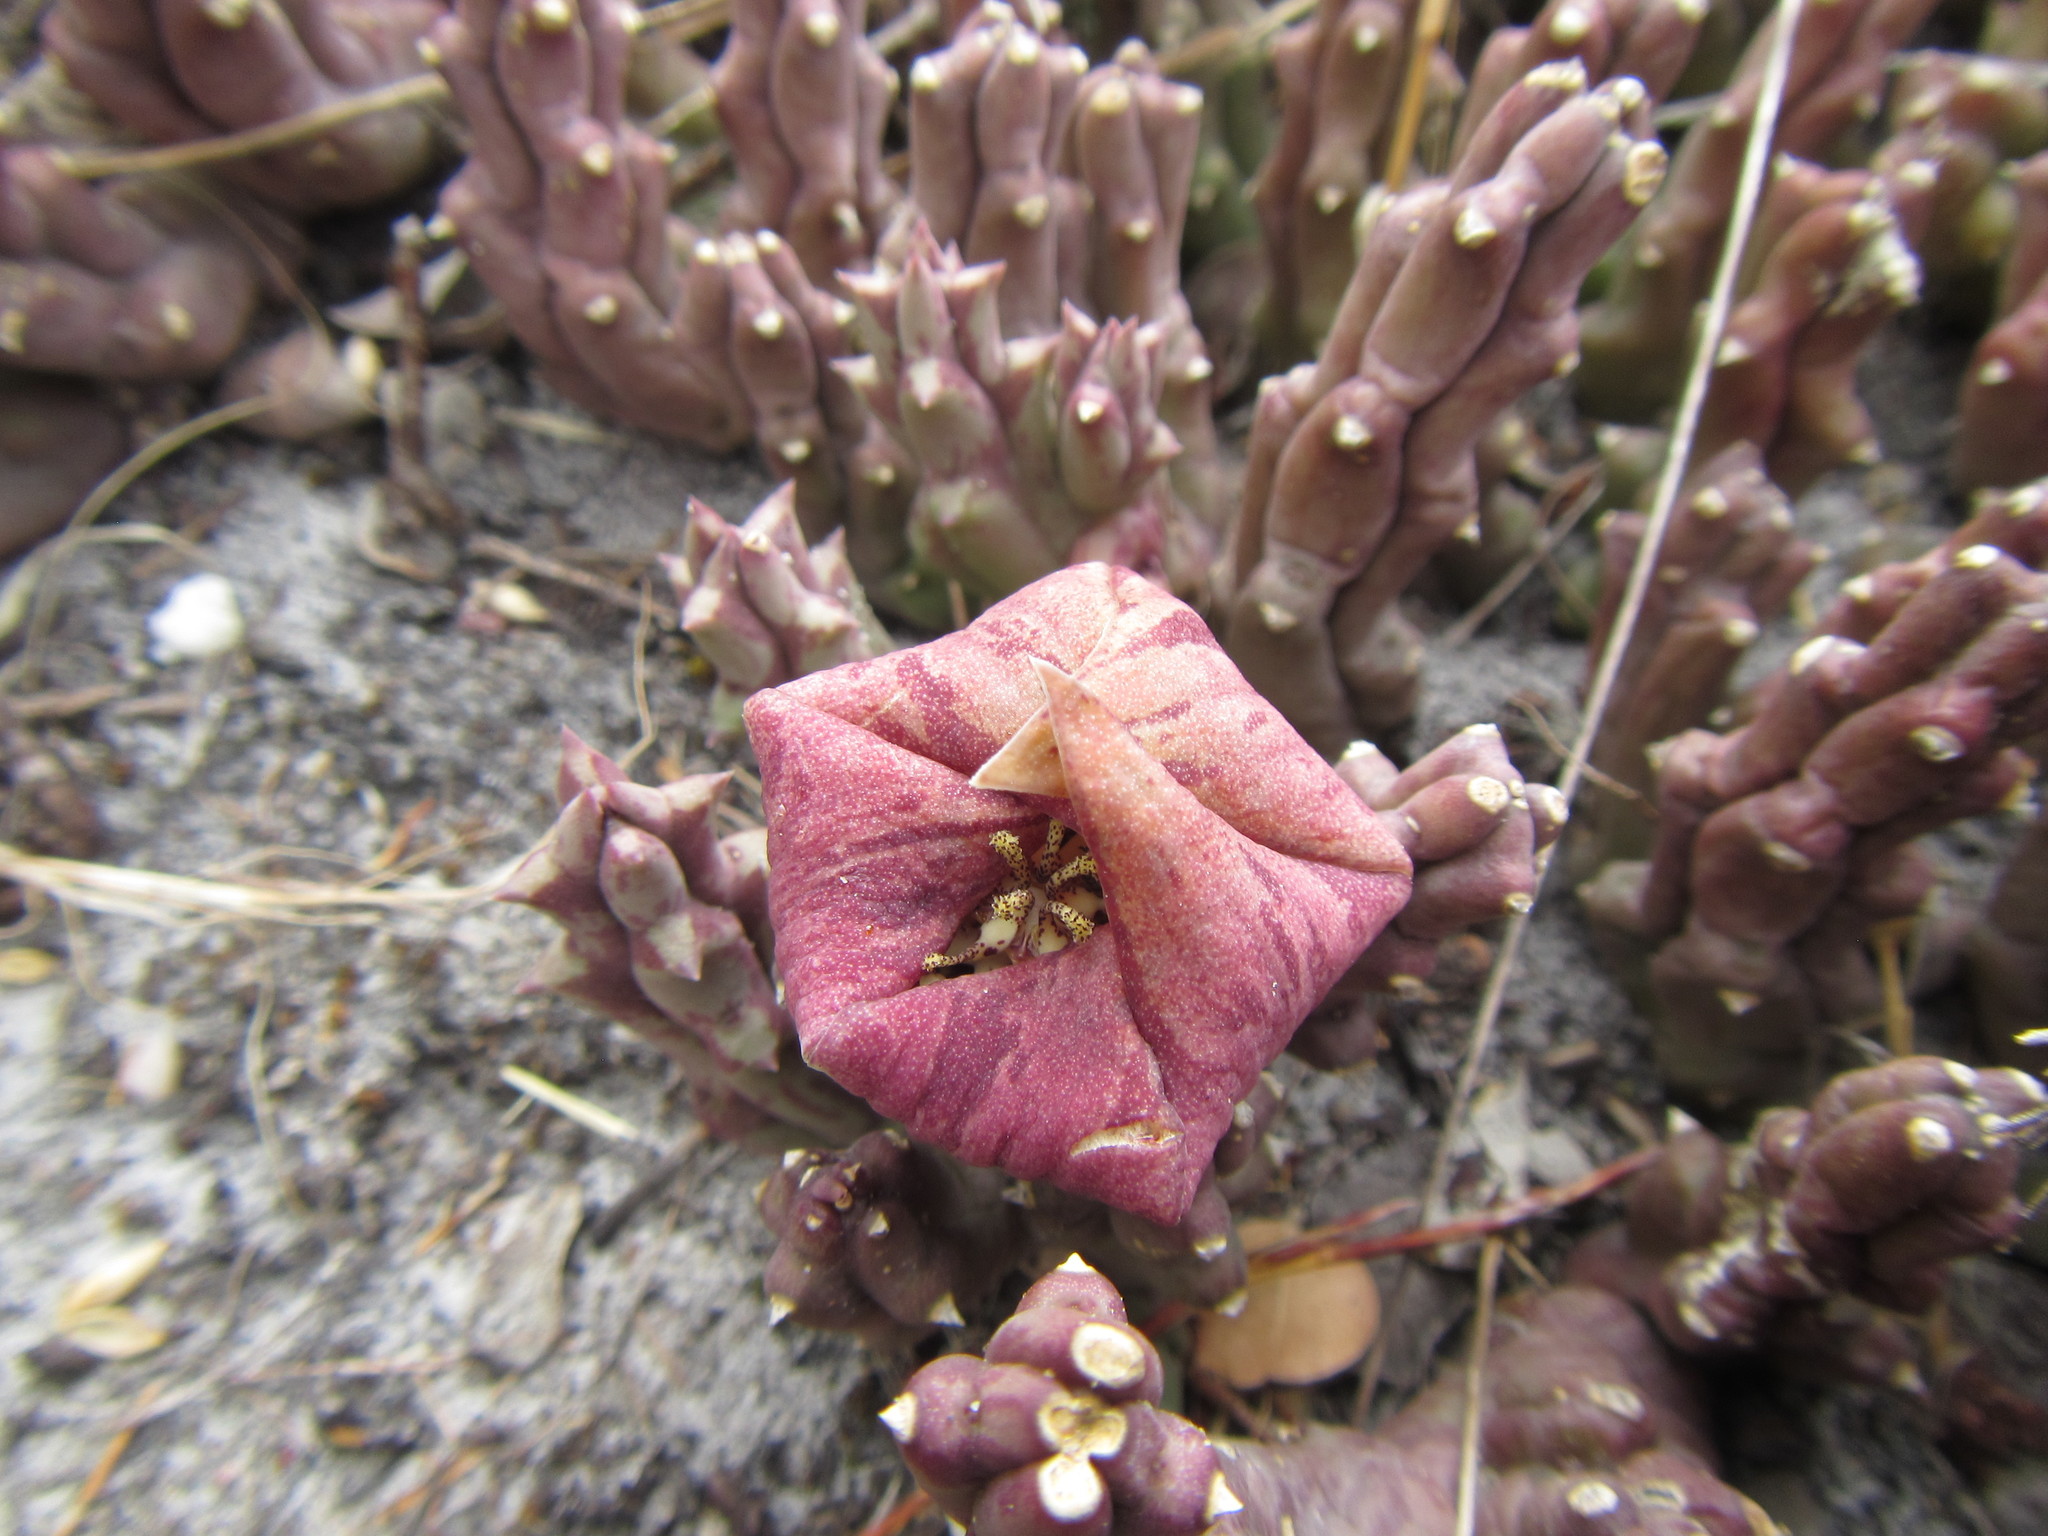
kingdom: Plantae
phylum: Tracheophyta
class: Magnoliopsida
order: Gentianales
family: Apocynaceae
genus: Ceropegia
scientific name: Ceropegia mixta
